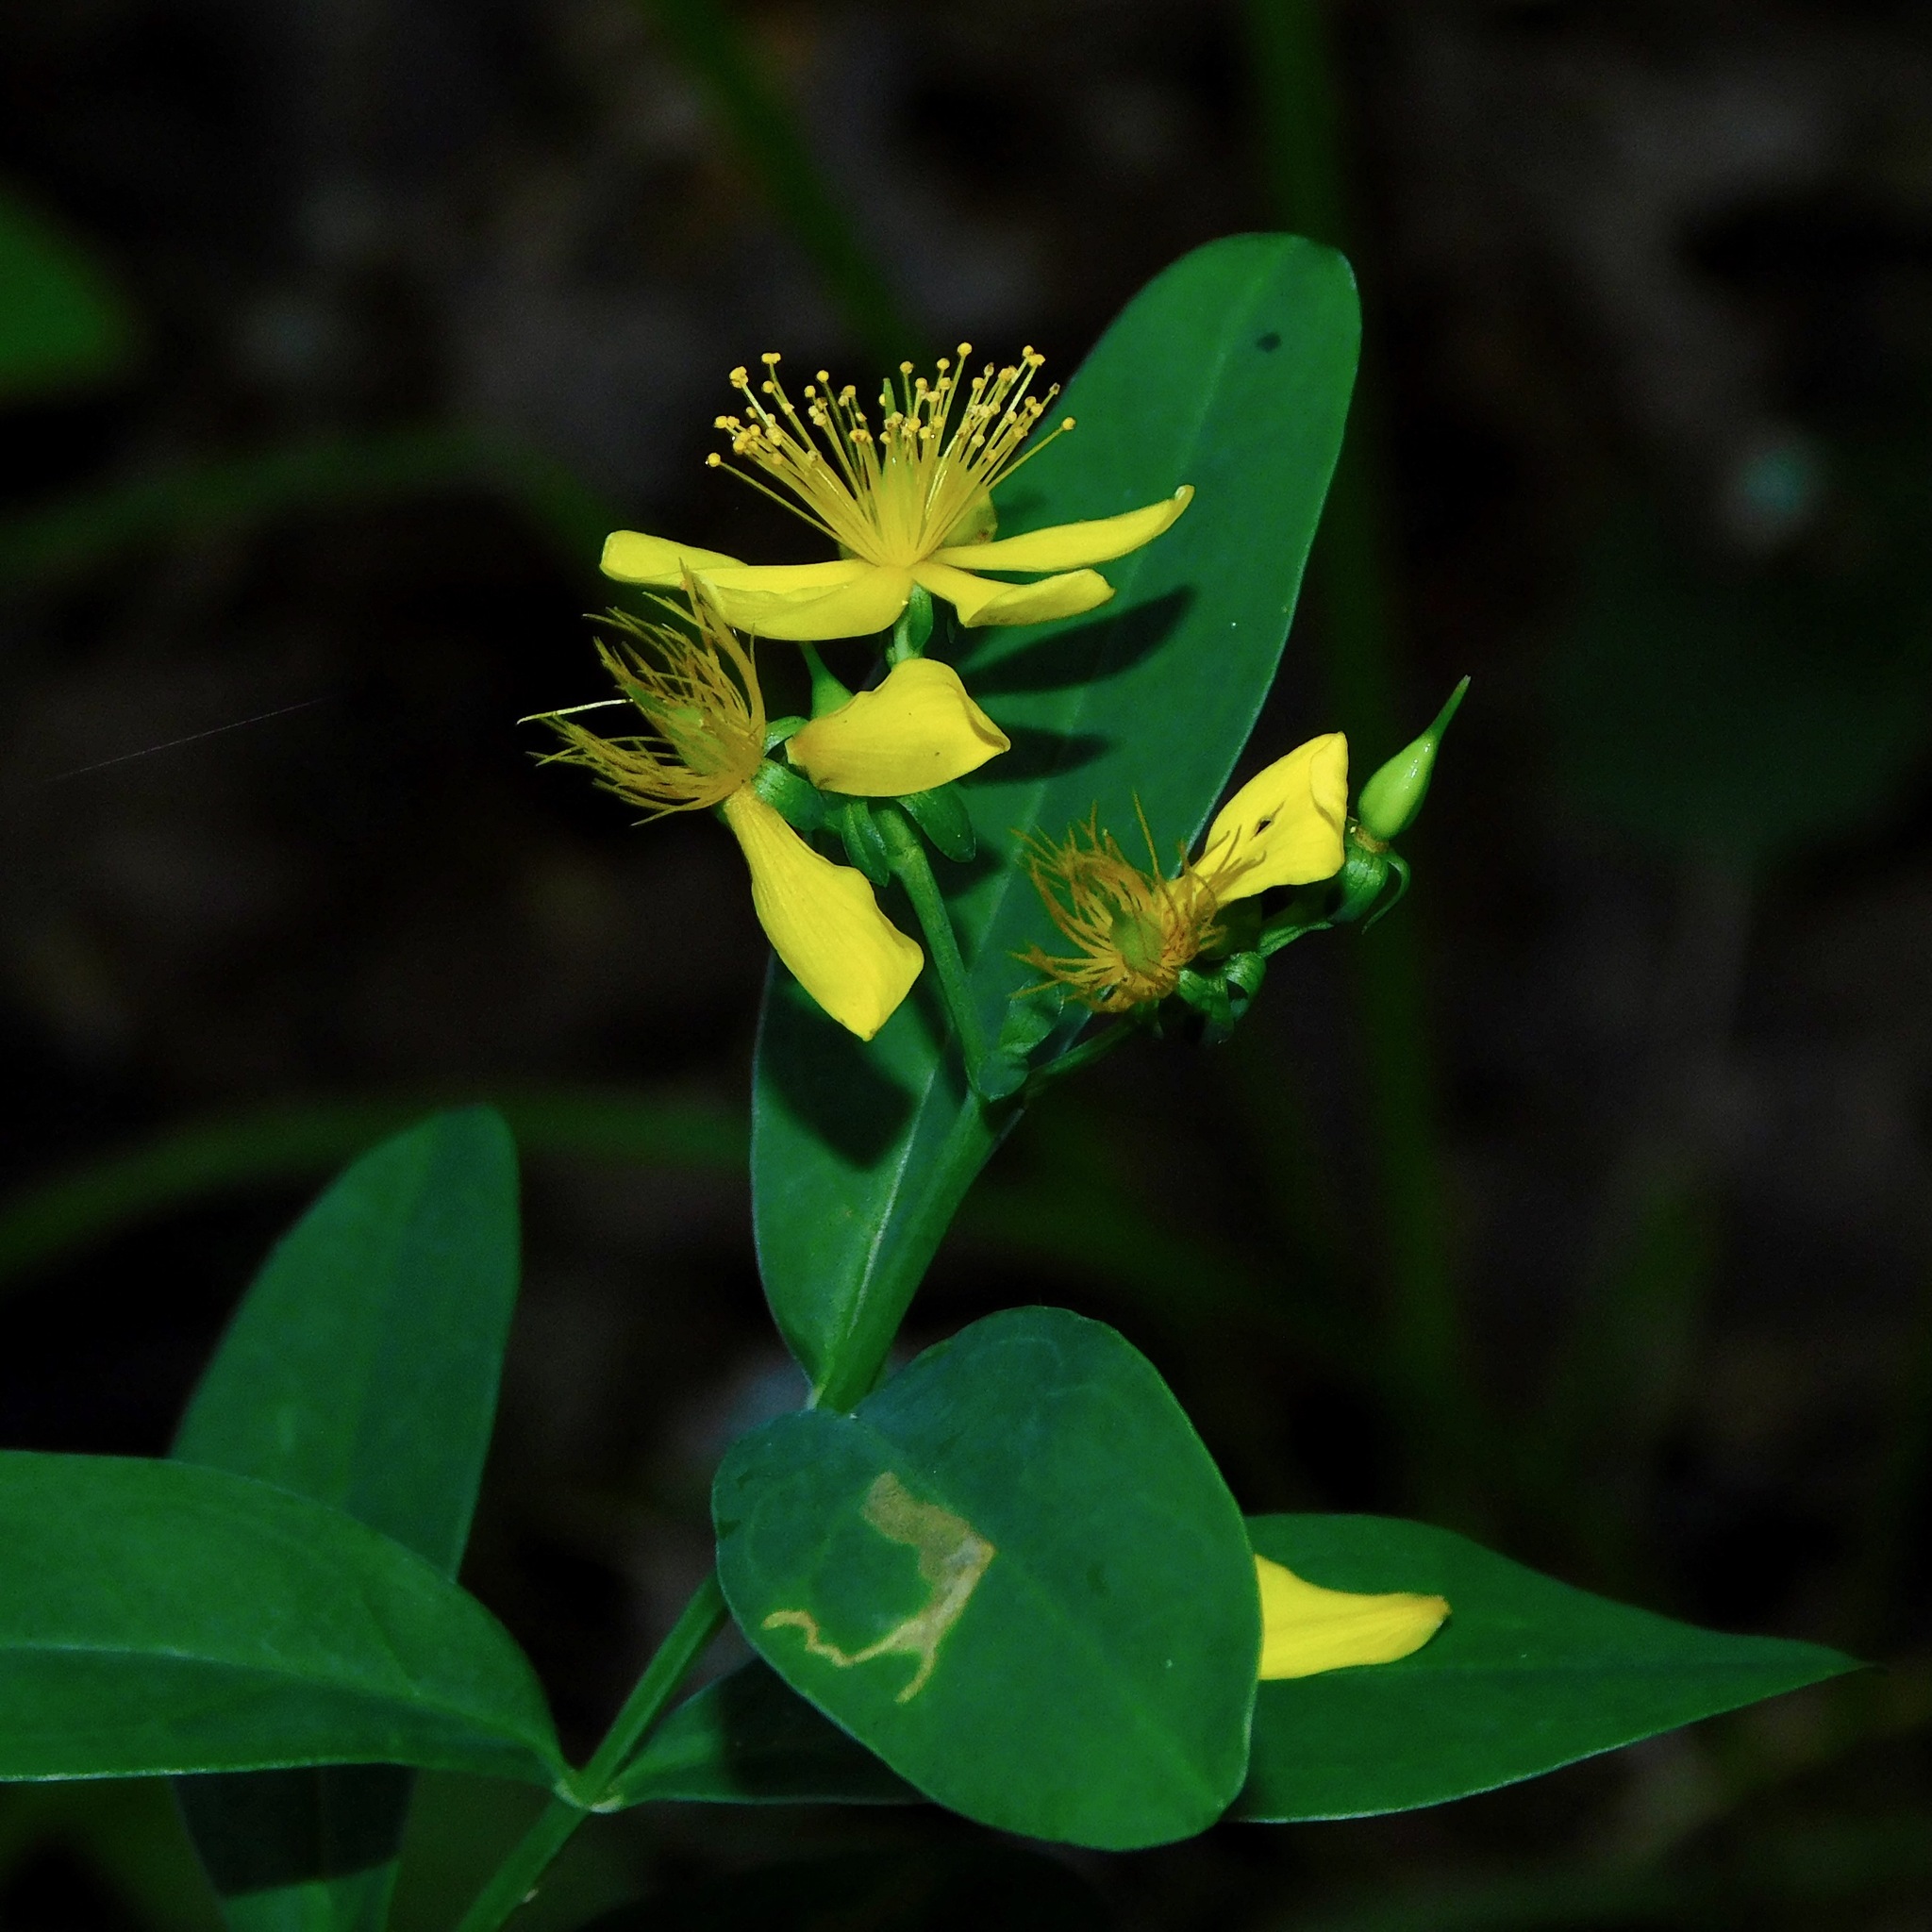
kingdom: Plantae
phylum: Tracheophyta
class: Magnoliopsida
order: Malpighiales
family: Hypericaceae
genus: Hypericum
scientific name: Hypericum nudiflorum
